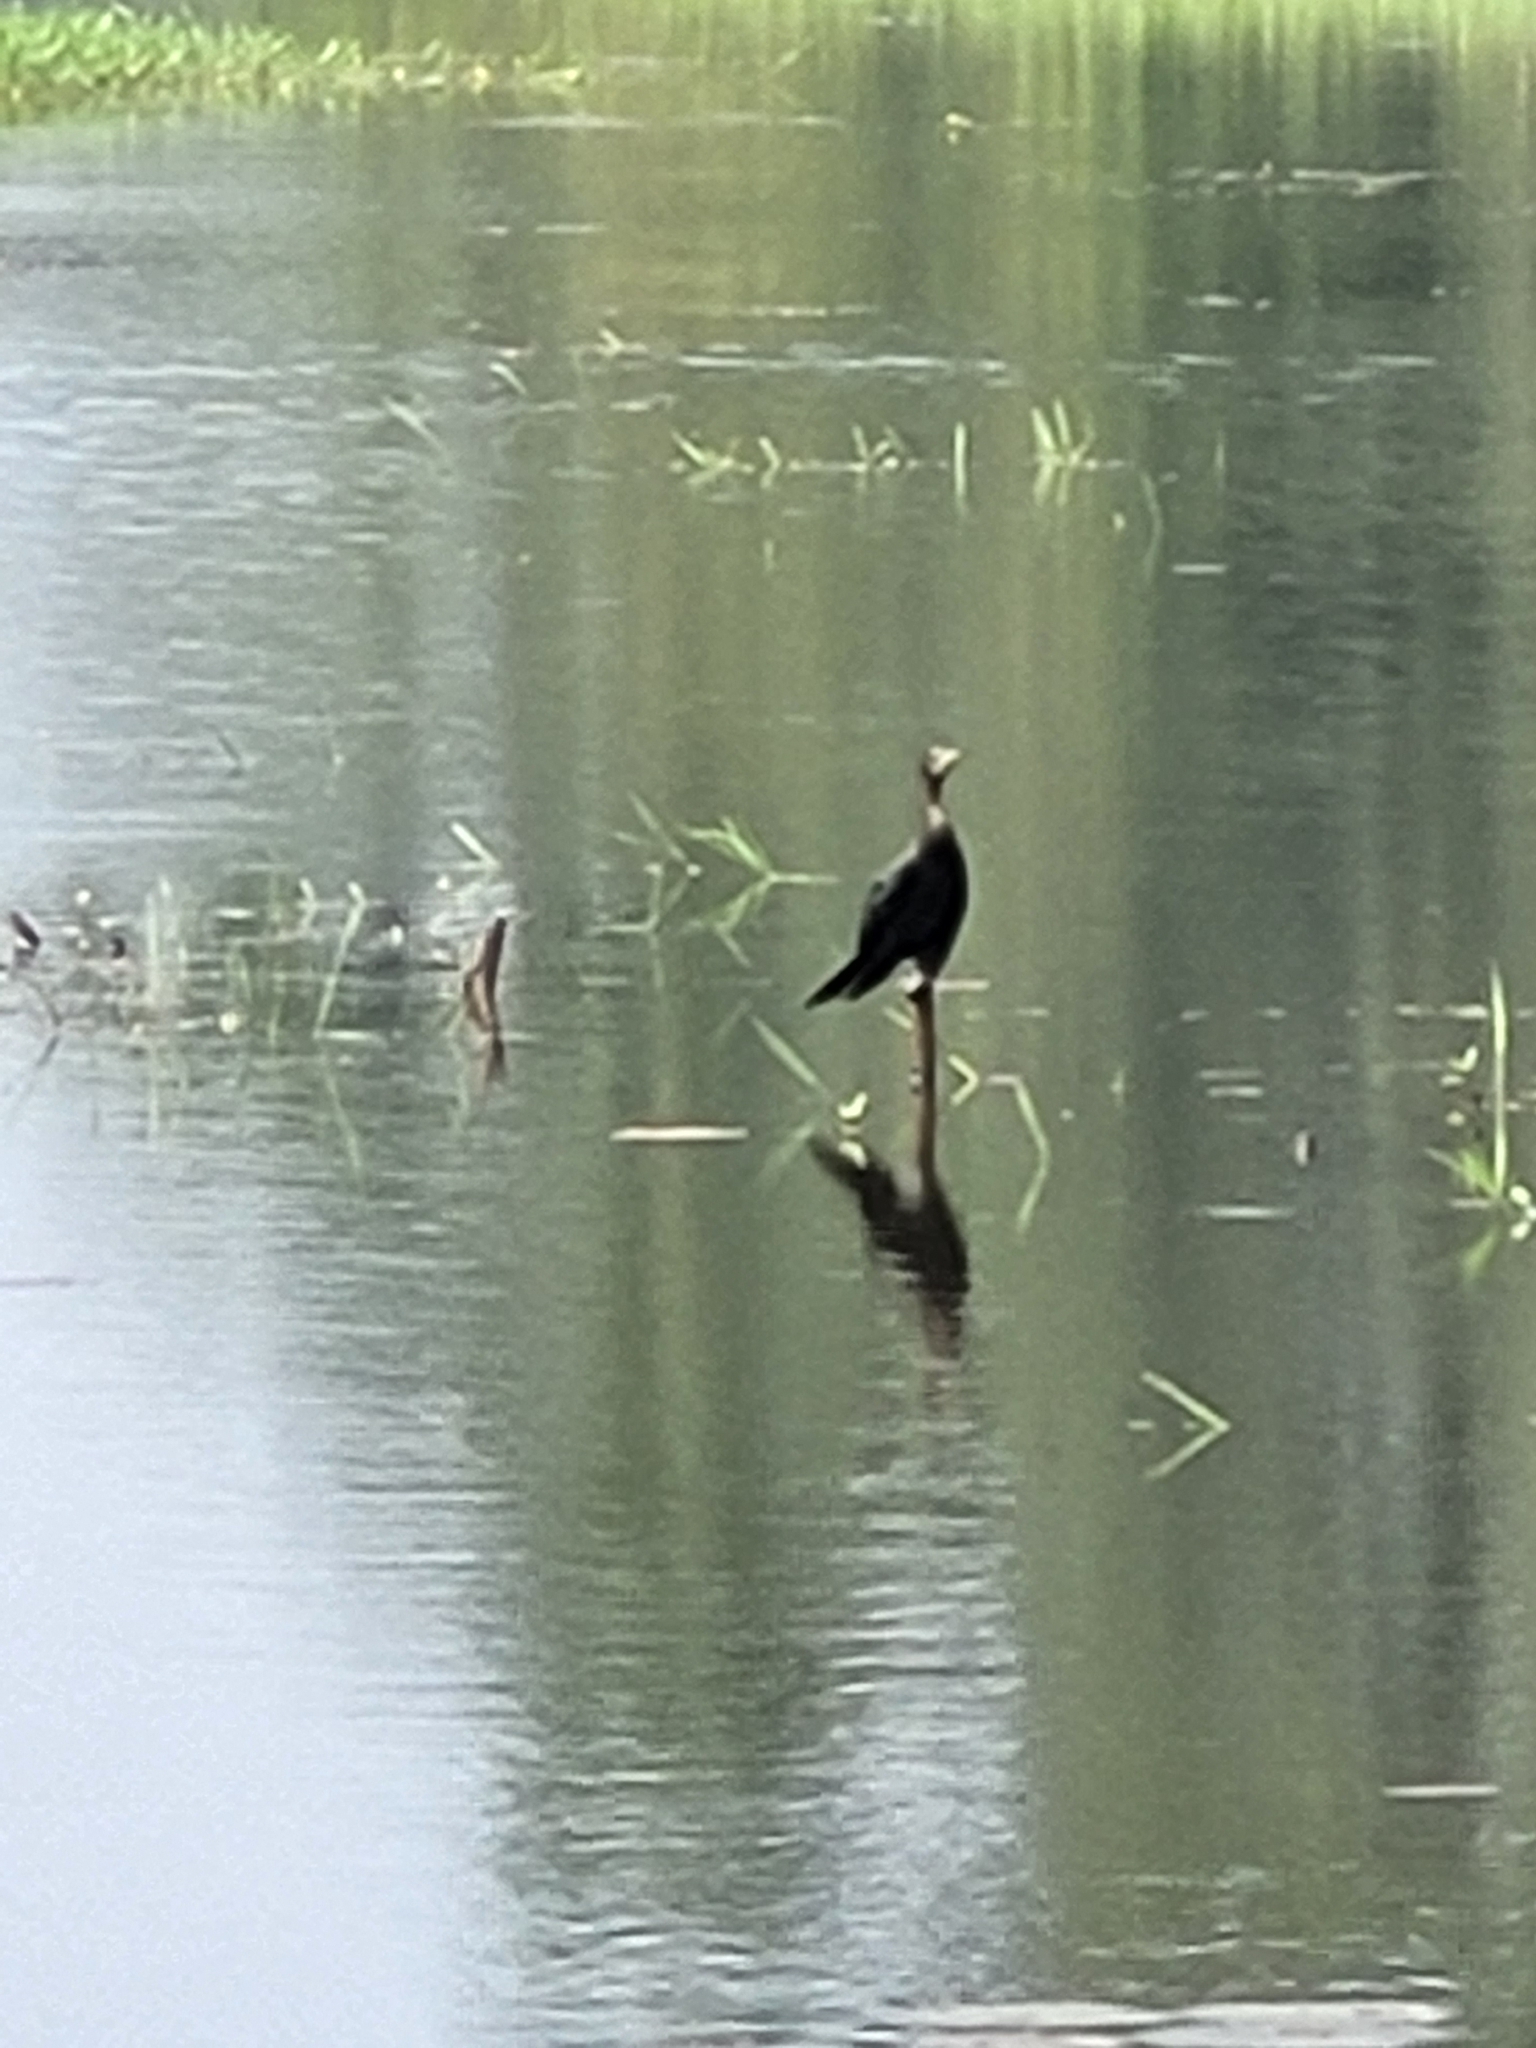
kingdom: Animalia
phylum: Chordata
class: Aves
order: Suliformes
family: Phalacrocoracidae
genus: Microcarbo
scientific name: Microcarbo niger
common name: Little cormorant
